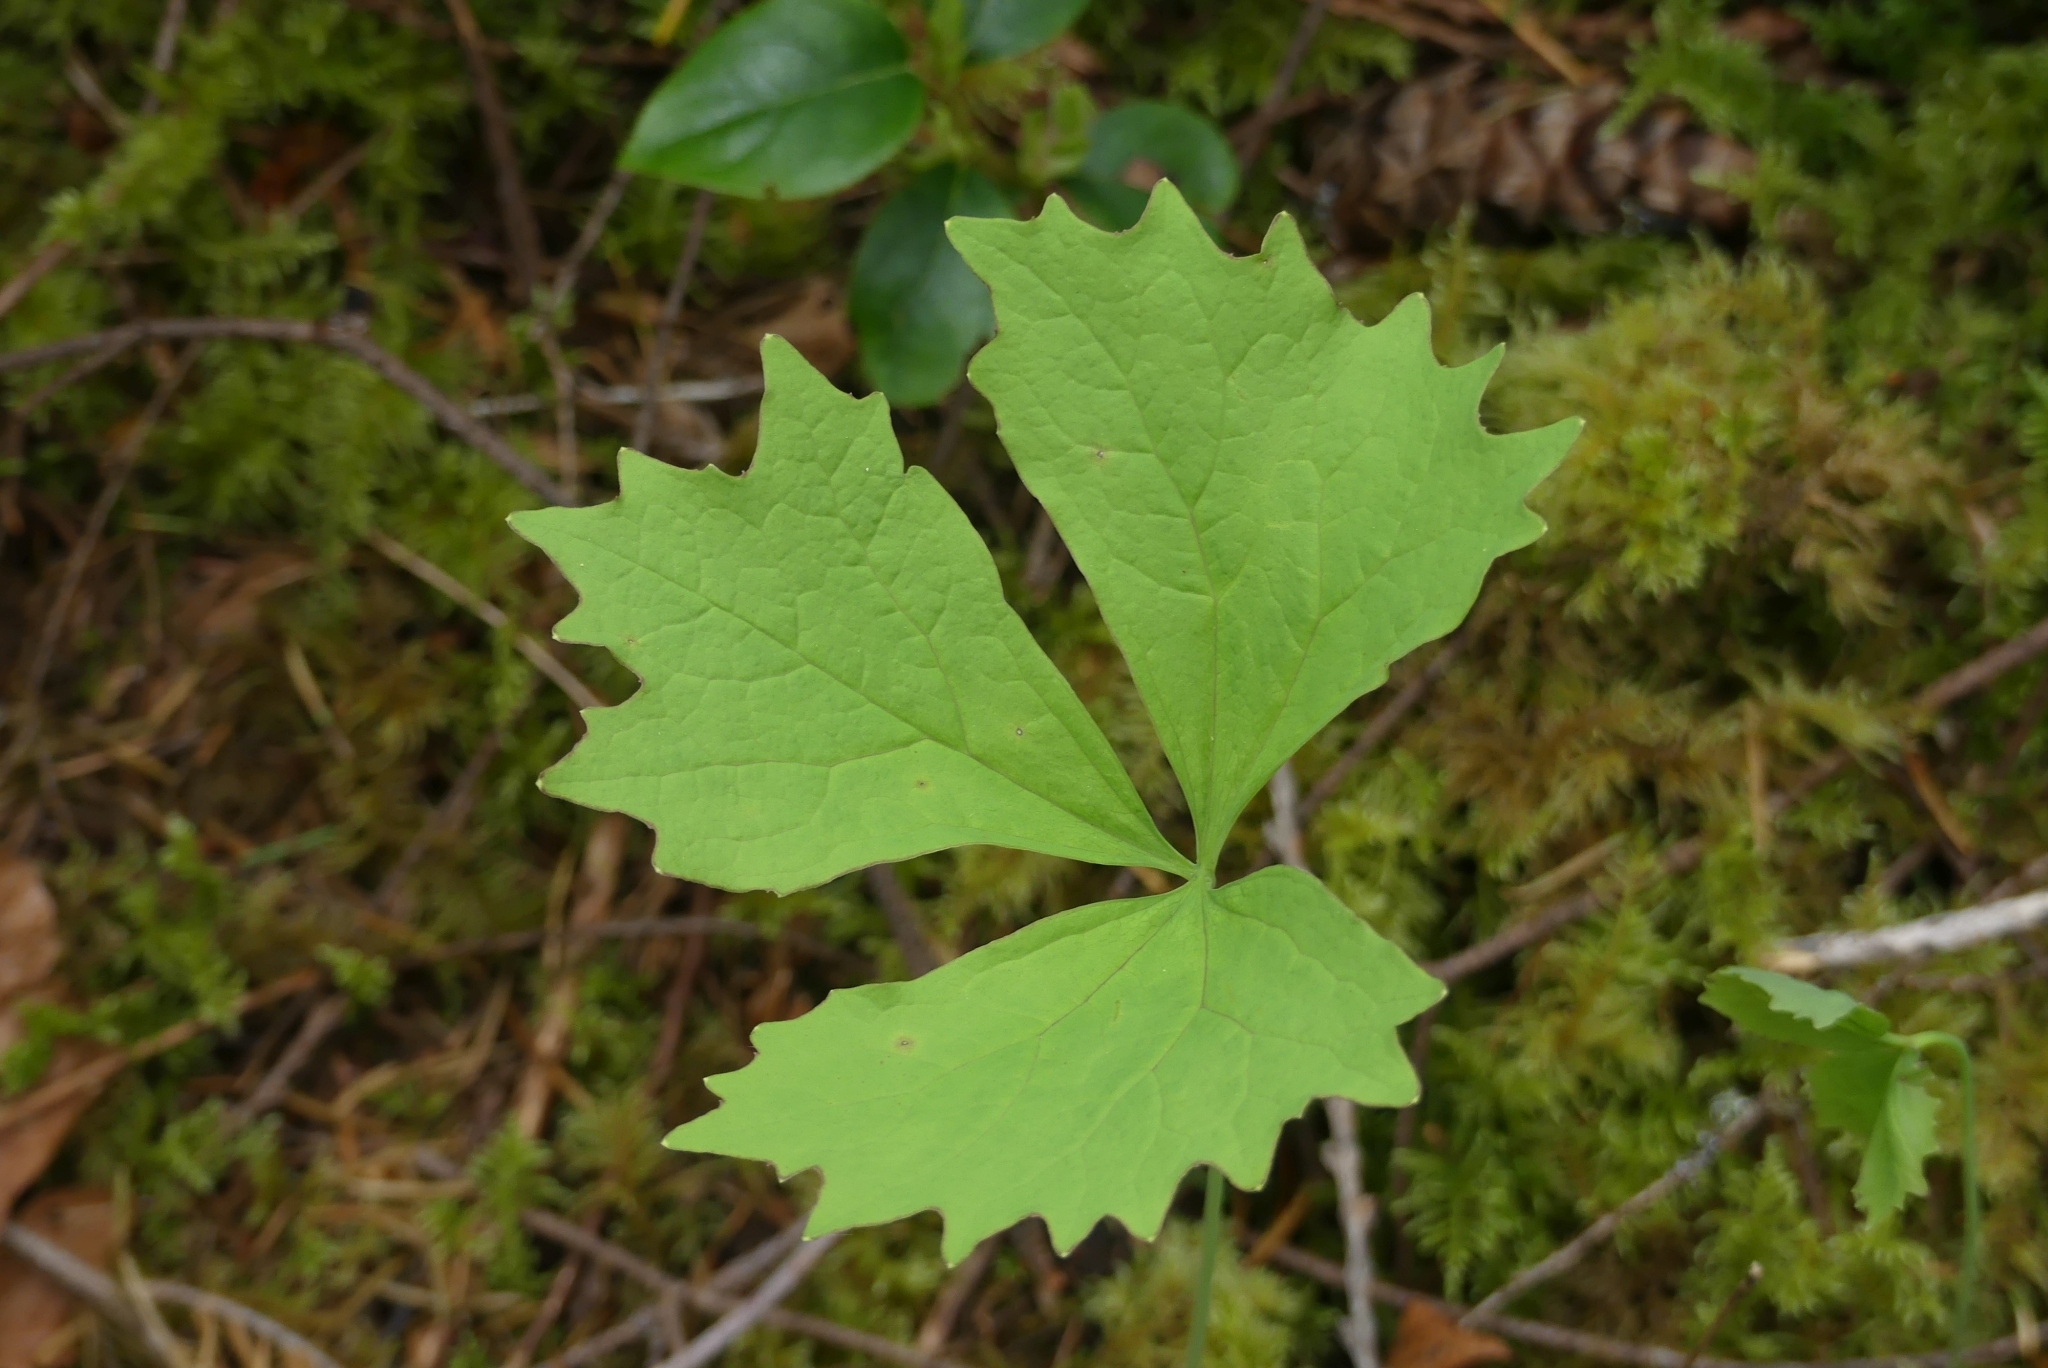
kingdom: Plantae
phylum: Tracheophyta
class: Magnoliopsida
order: Ranunculales
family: Berberidaceae
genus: Achlys
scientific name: Achlys triphylla
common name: Vanilla-leaf
